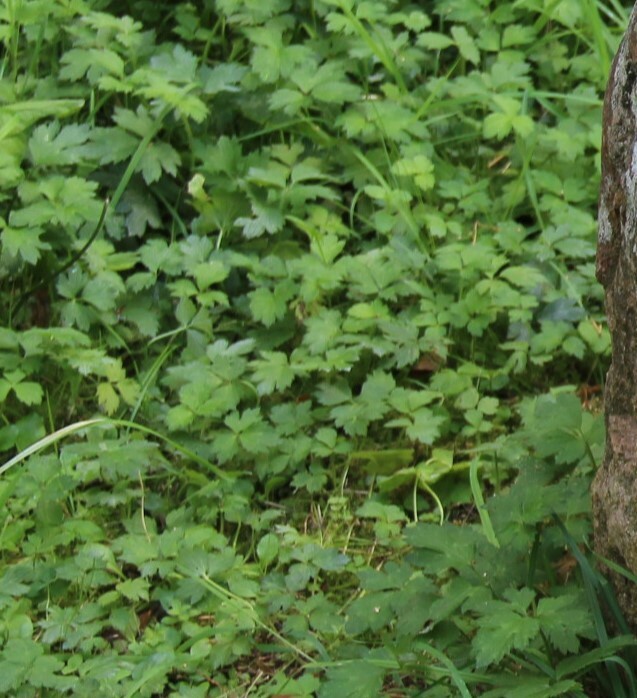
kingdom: Plantae
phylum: Tracheophyta
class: Magnoliopsida
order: Ranunculales
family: Ranunculaceae
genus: Ranunculus
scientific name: Ranunculus repens
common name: Creeping buttercup
